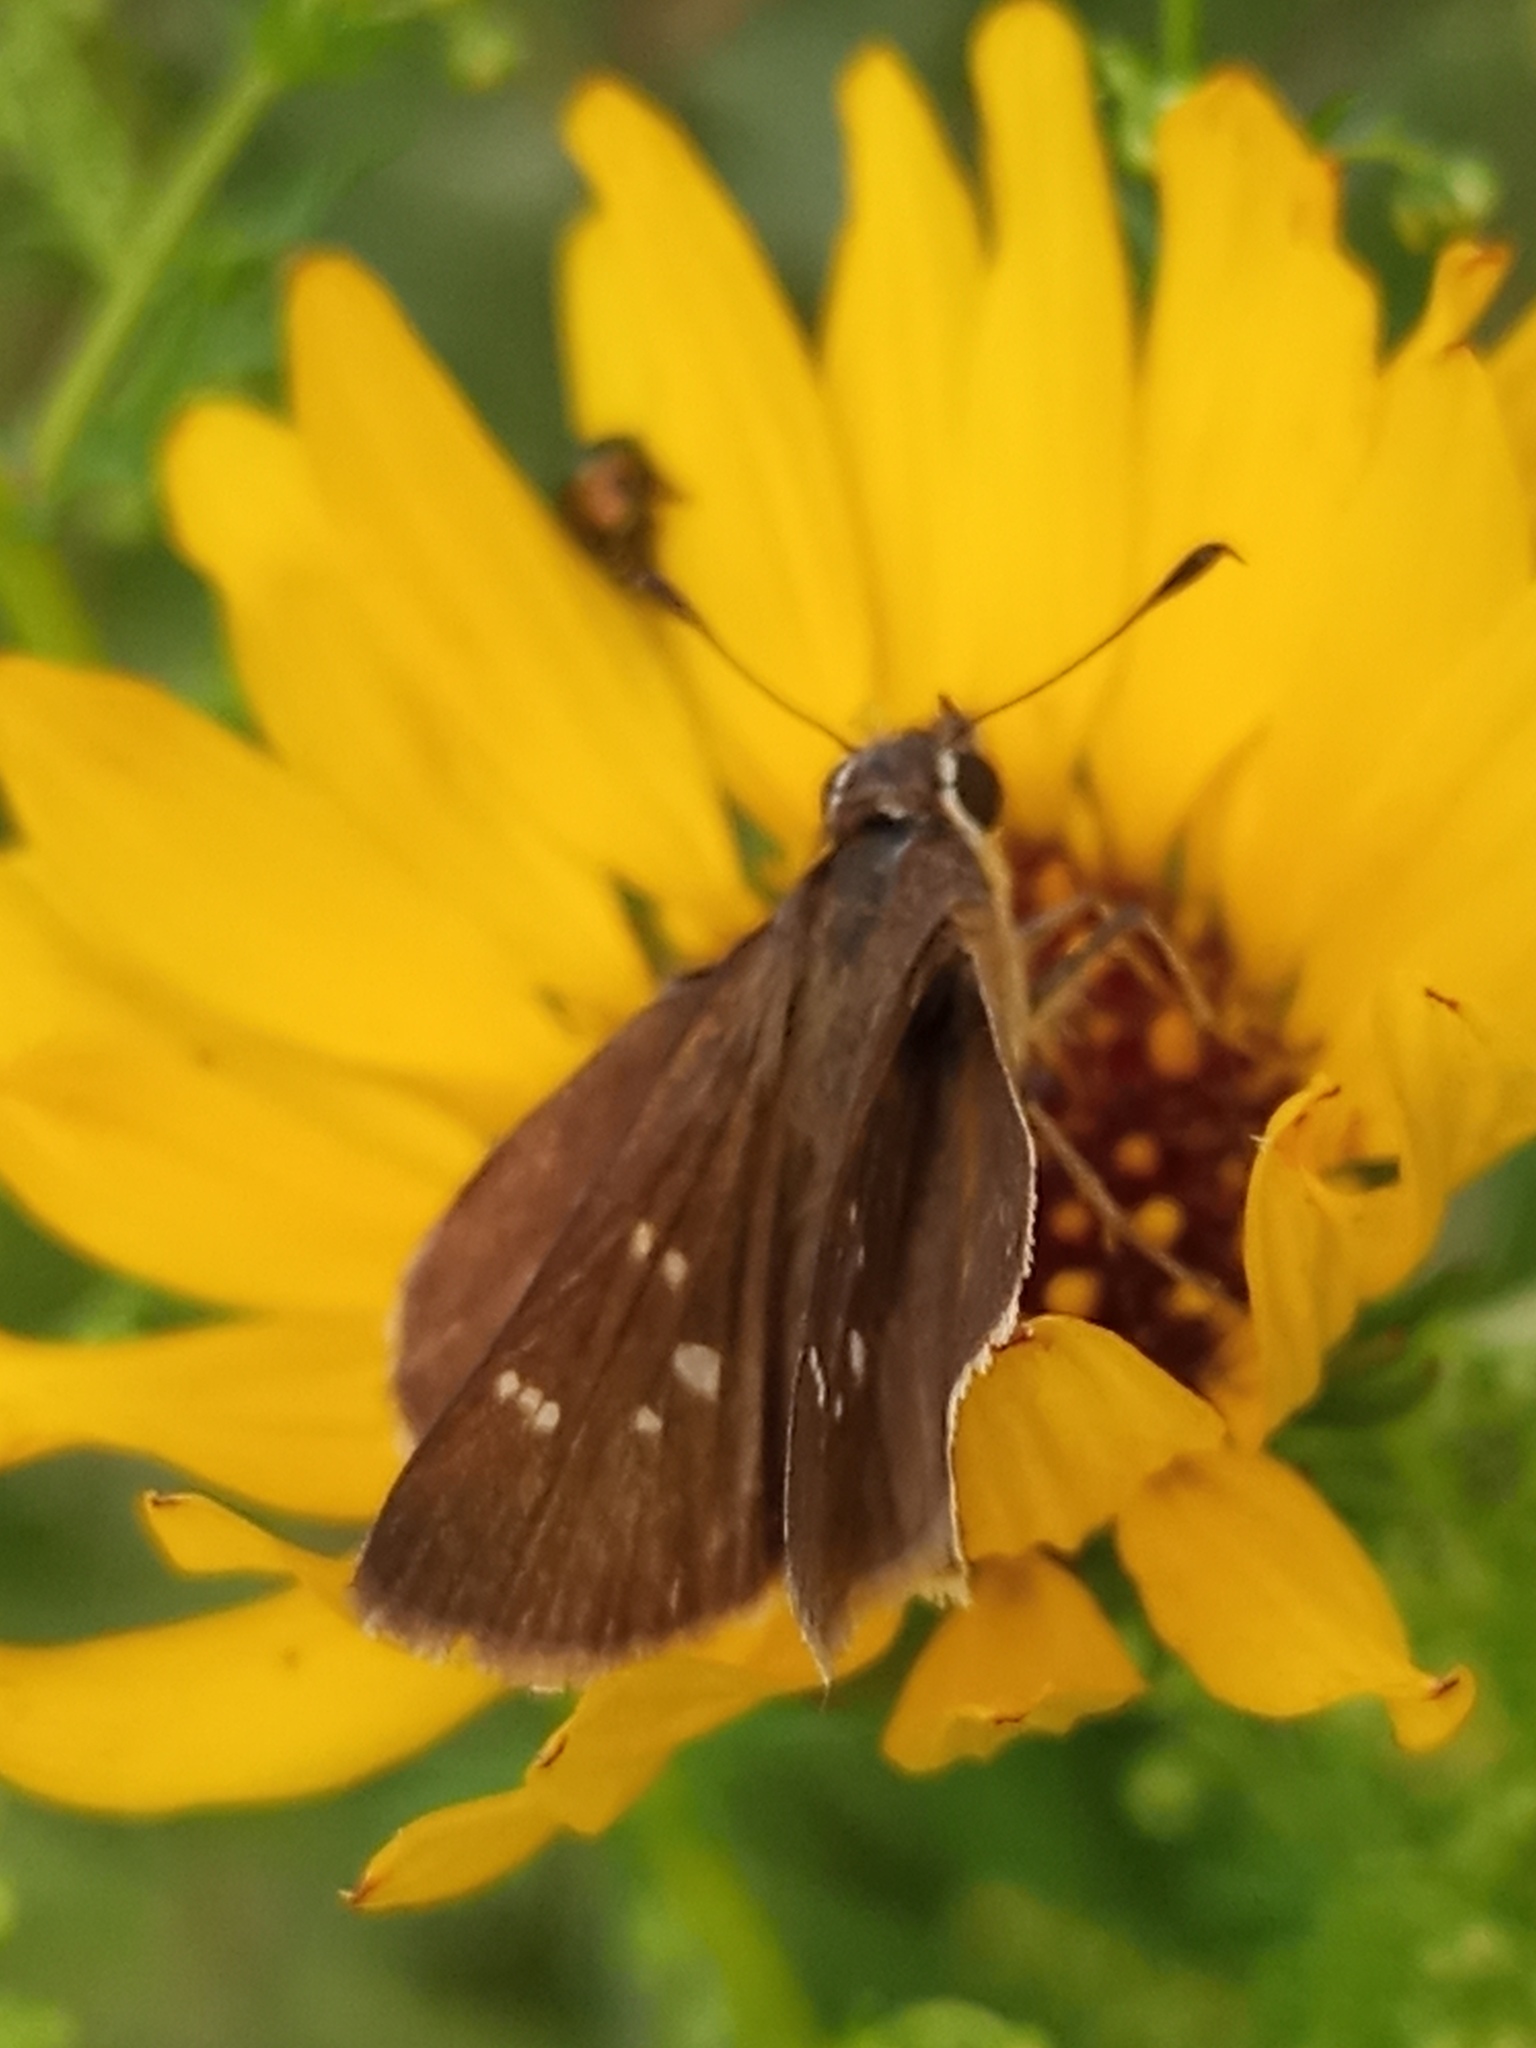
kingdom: Animalia
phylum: Arthropoda
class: Insecta
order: Lepidoptera
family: Hesperiidae
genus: Lerodea
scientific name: Lerodea eufala
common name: Eufala skipper
